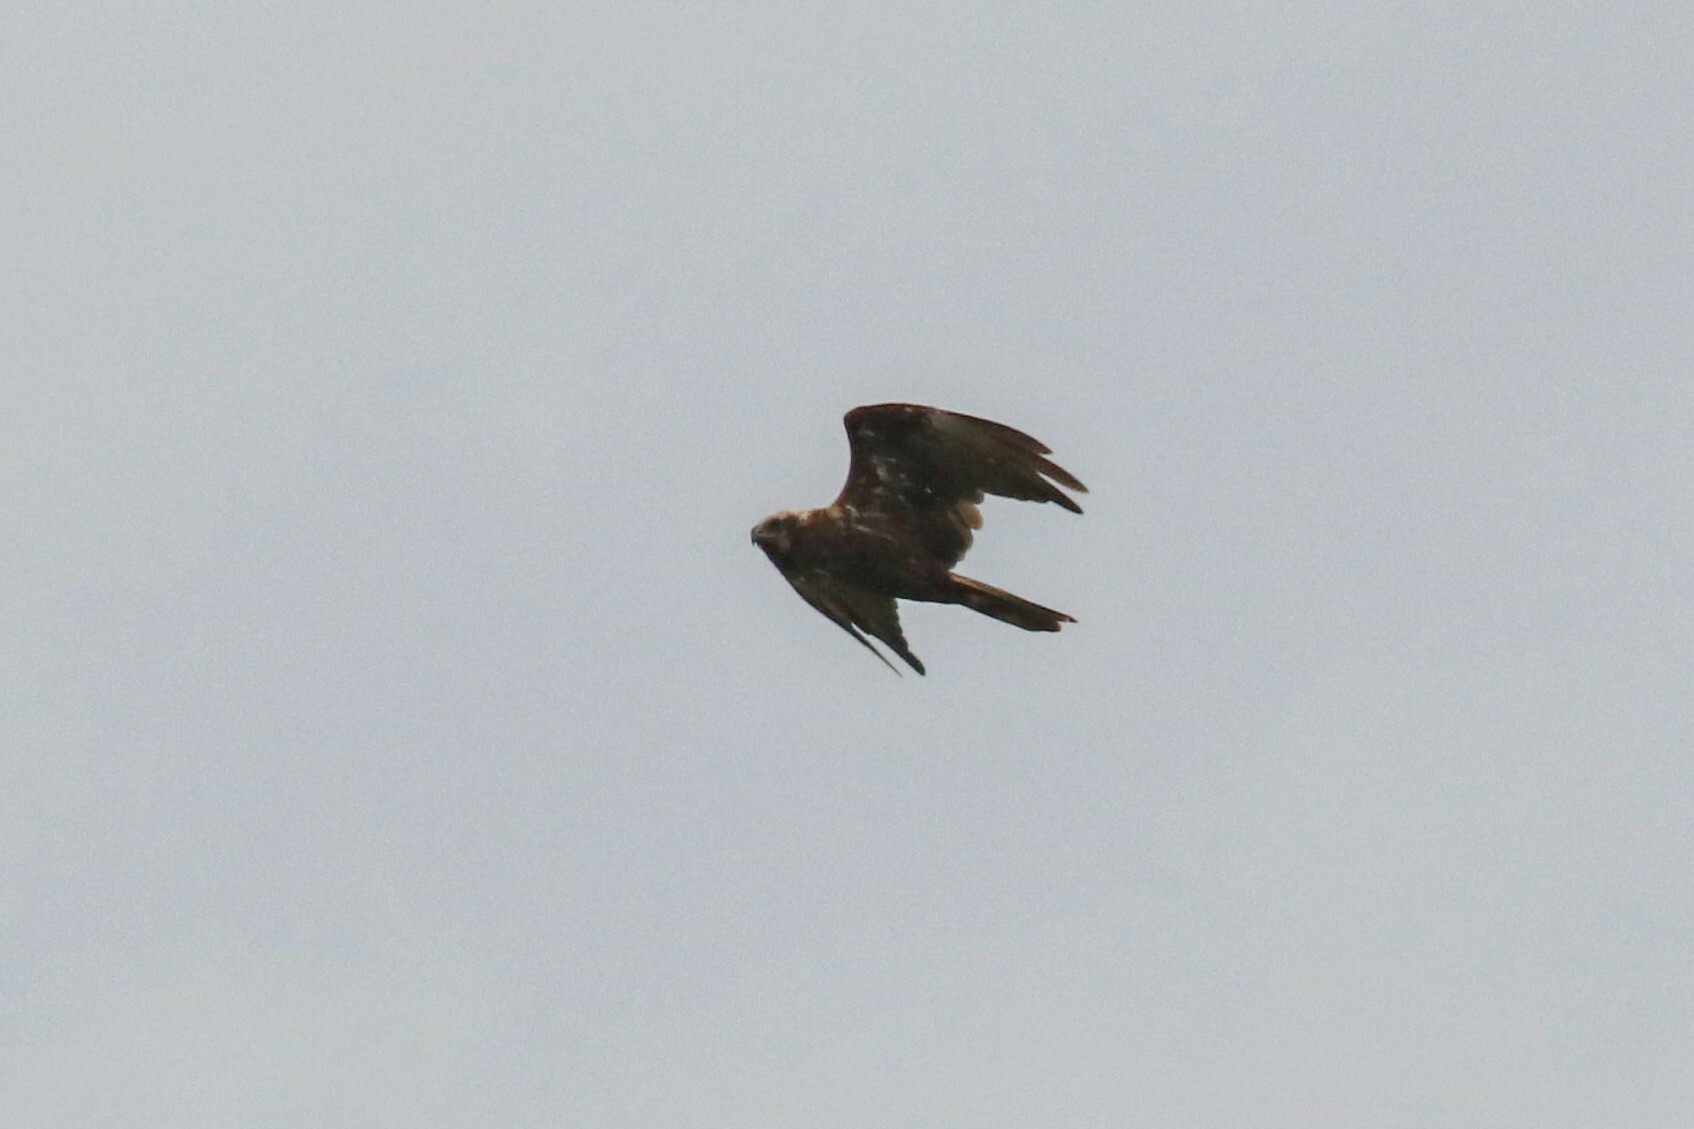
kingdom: Animalia
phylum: Chordata
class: Aves
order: Accipitriformes
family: Accipitridae
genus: Circus
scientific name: Circus aeruginosus
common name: Western marsh harrier
